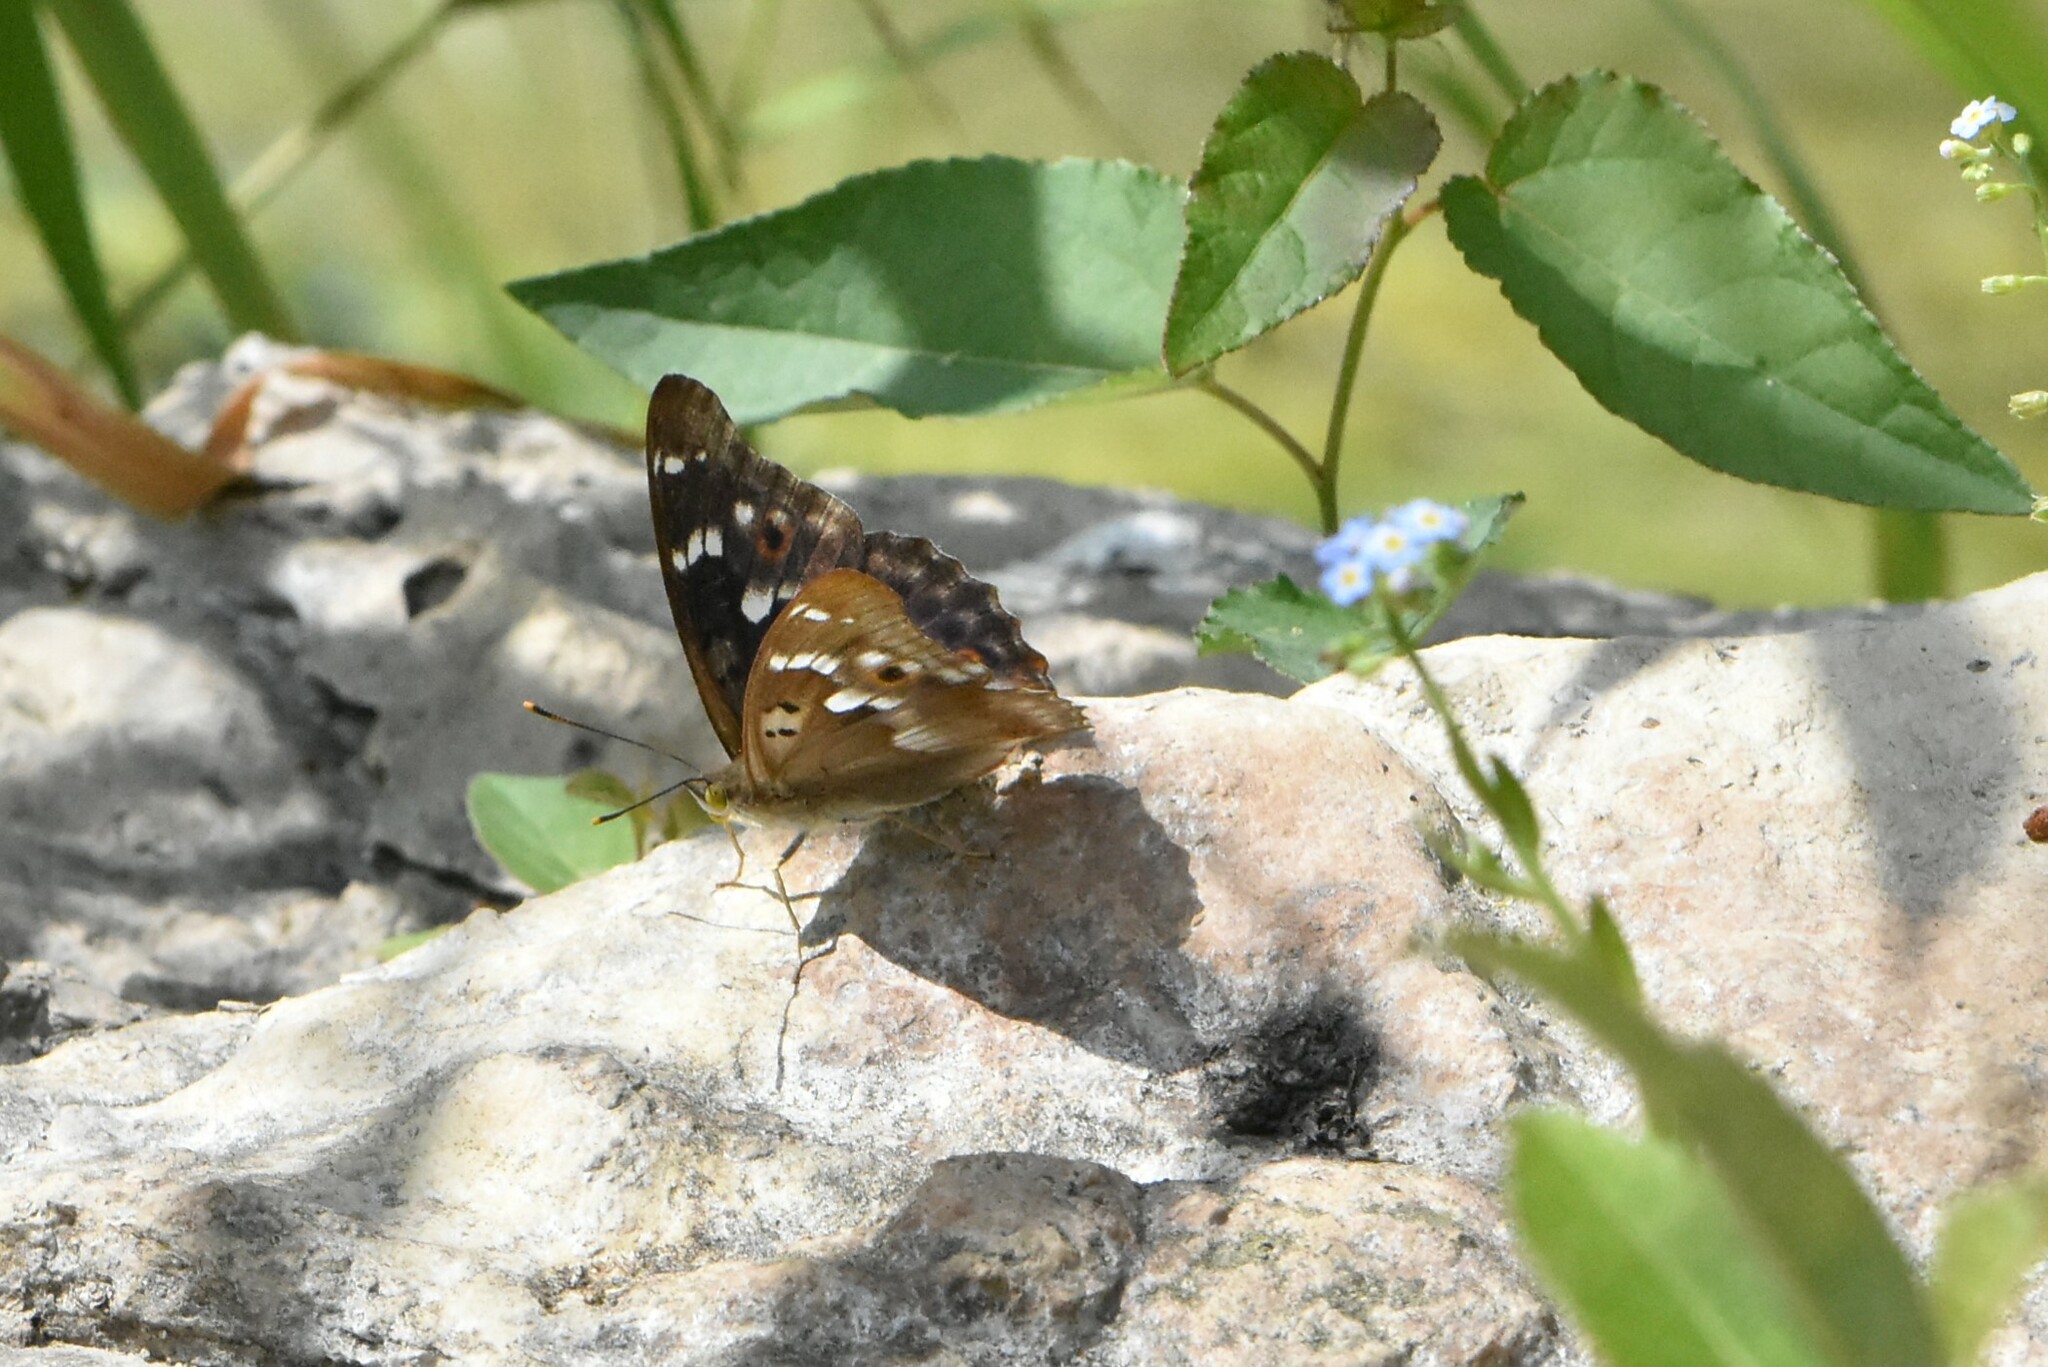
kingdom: Animalia
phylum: Arthropoda
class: Insecta
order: Lepidoptera
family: Nymphalidae
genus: Apatura
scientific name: Apatura ilia
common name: Lesser purple emperor
